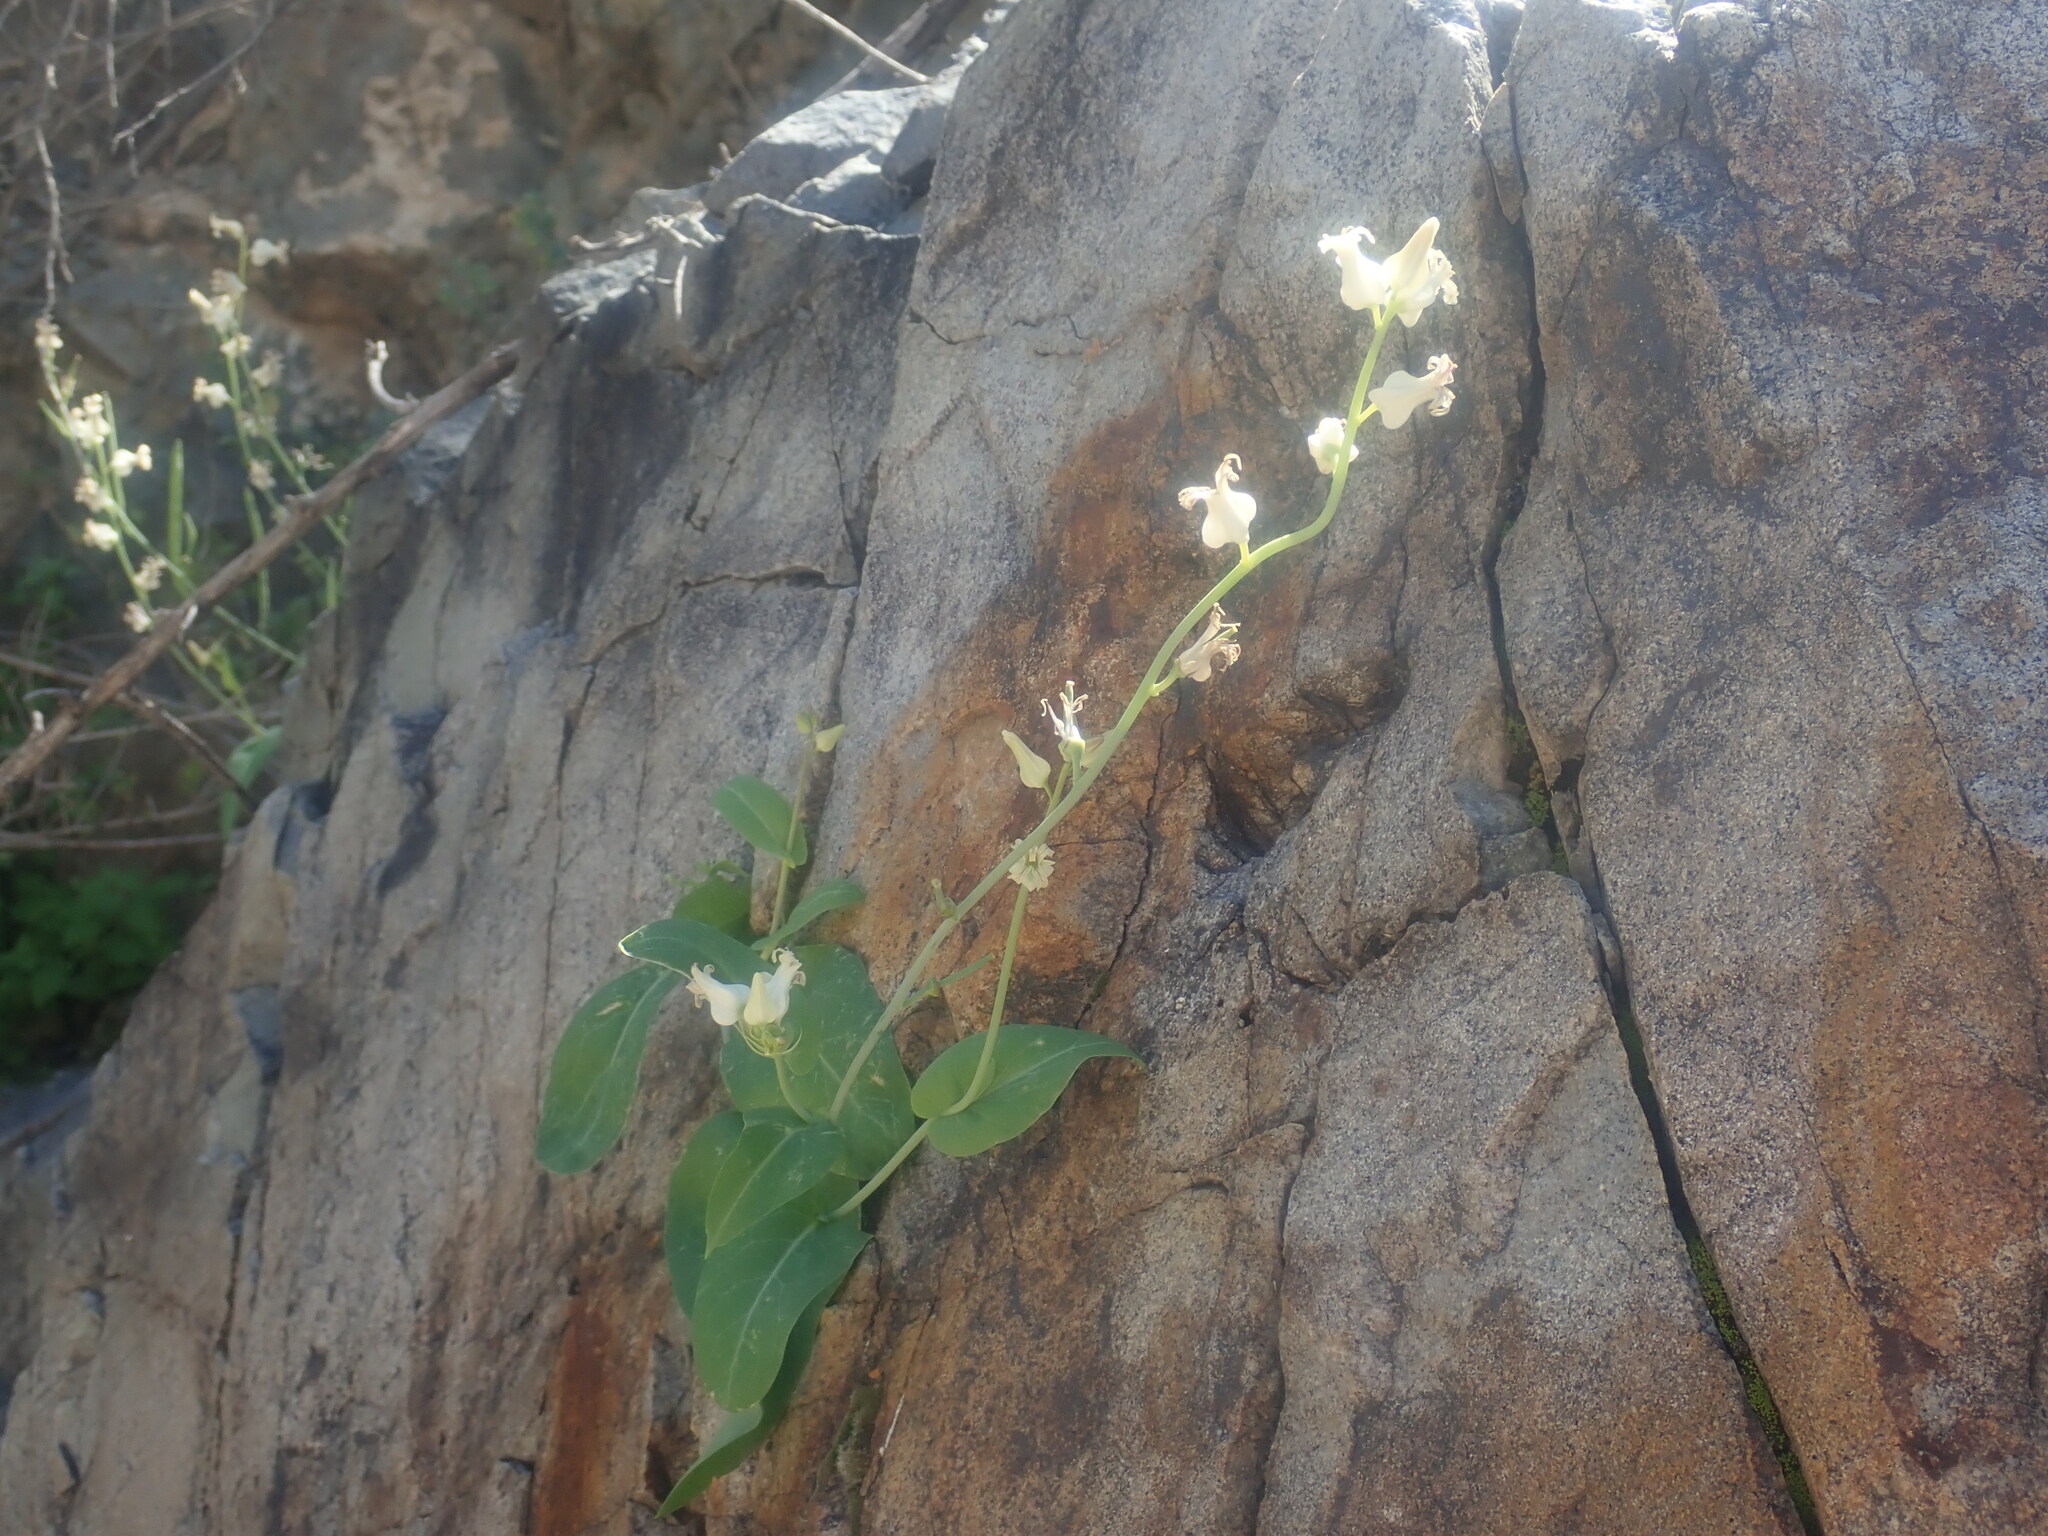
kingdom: Plantae
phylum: Tracheophyta
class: Magnoliopsida
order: Brassicales
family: Brassicaceae
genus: Streptanthus
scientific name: Streptanthus carinatus
